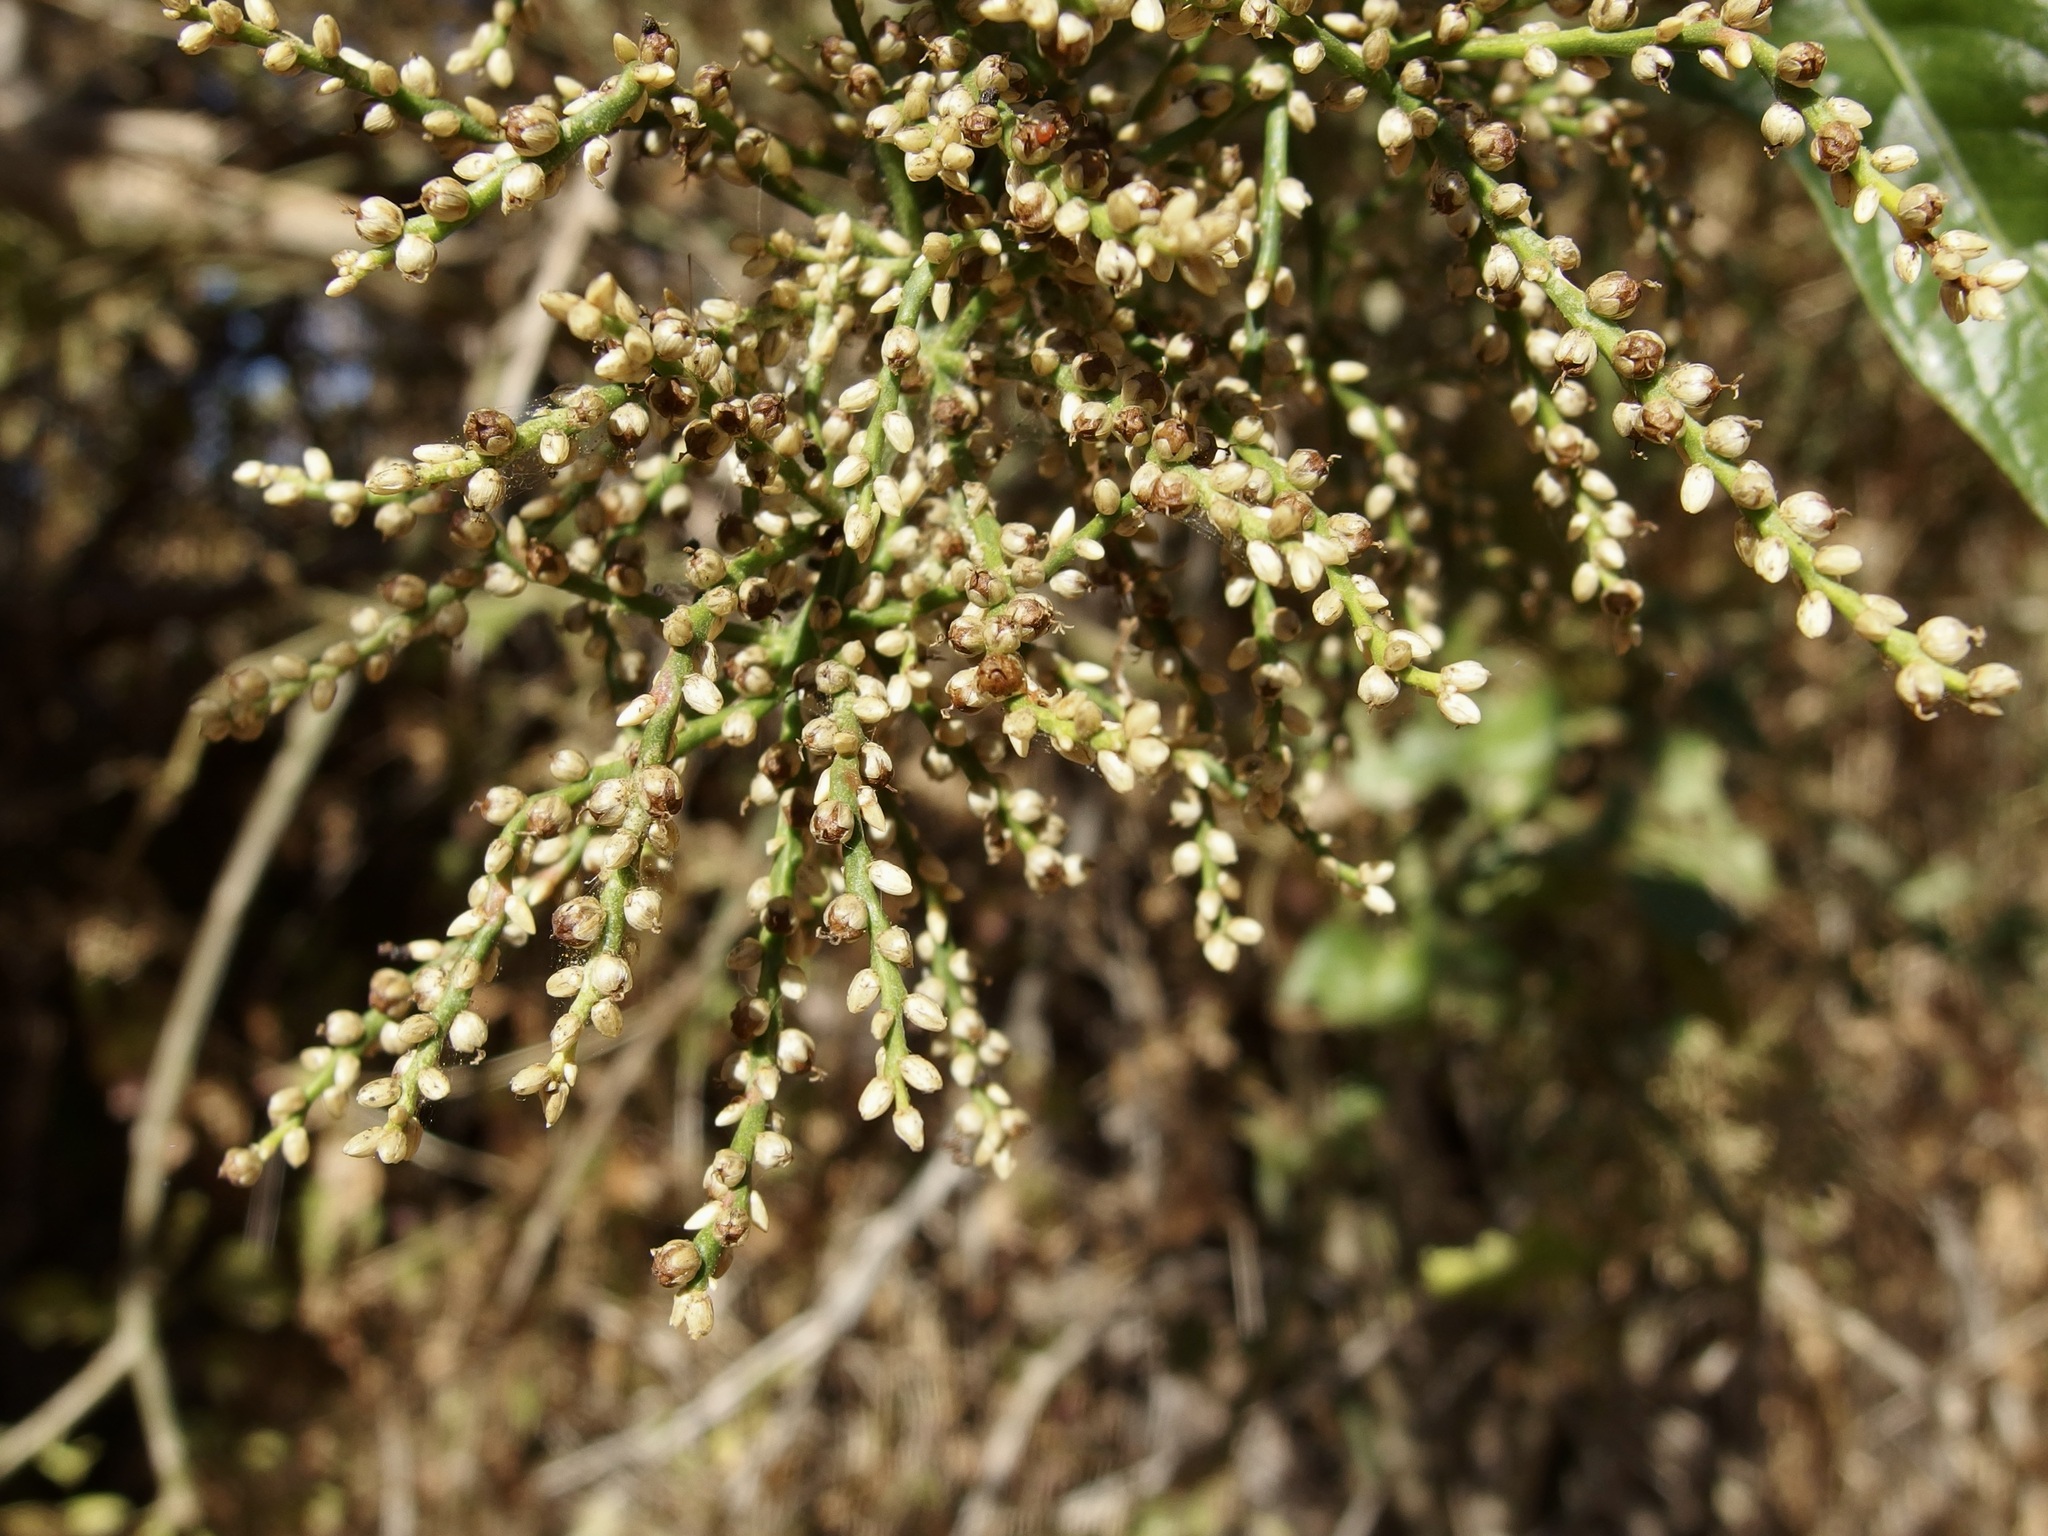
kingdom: Plantae
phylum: Tracheophyta
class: Magnoliopsida
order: Caryophyllales
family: Amaranthaceae
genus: Celosia
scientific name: Celosia floribunda
